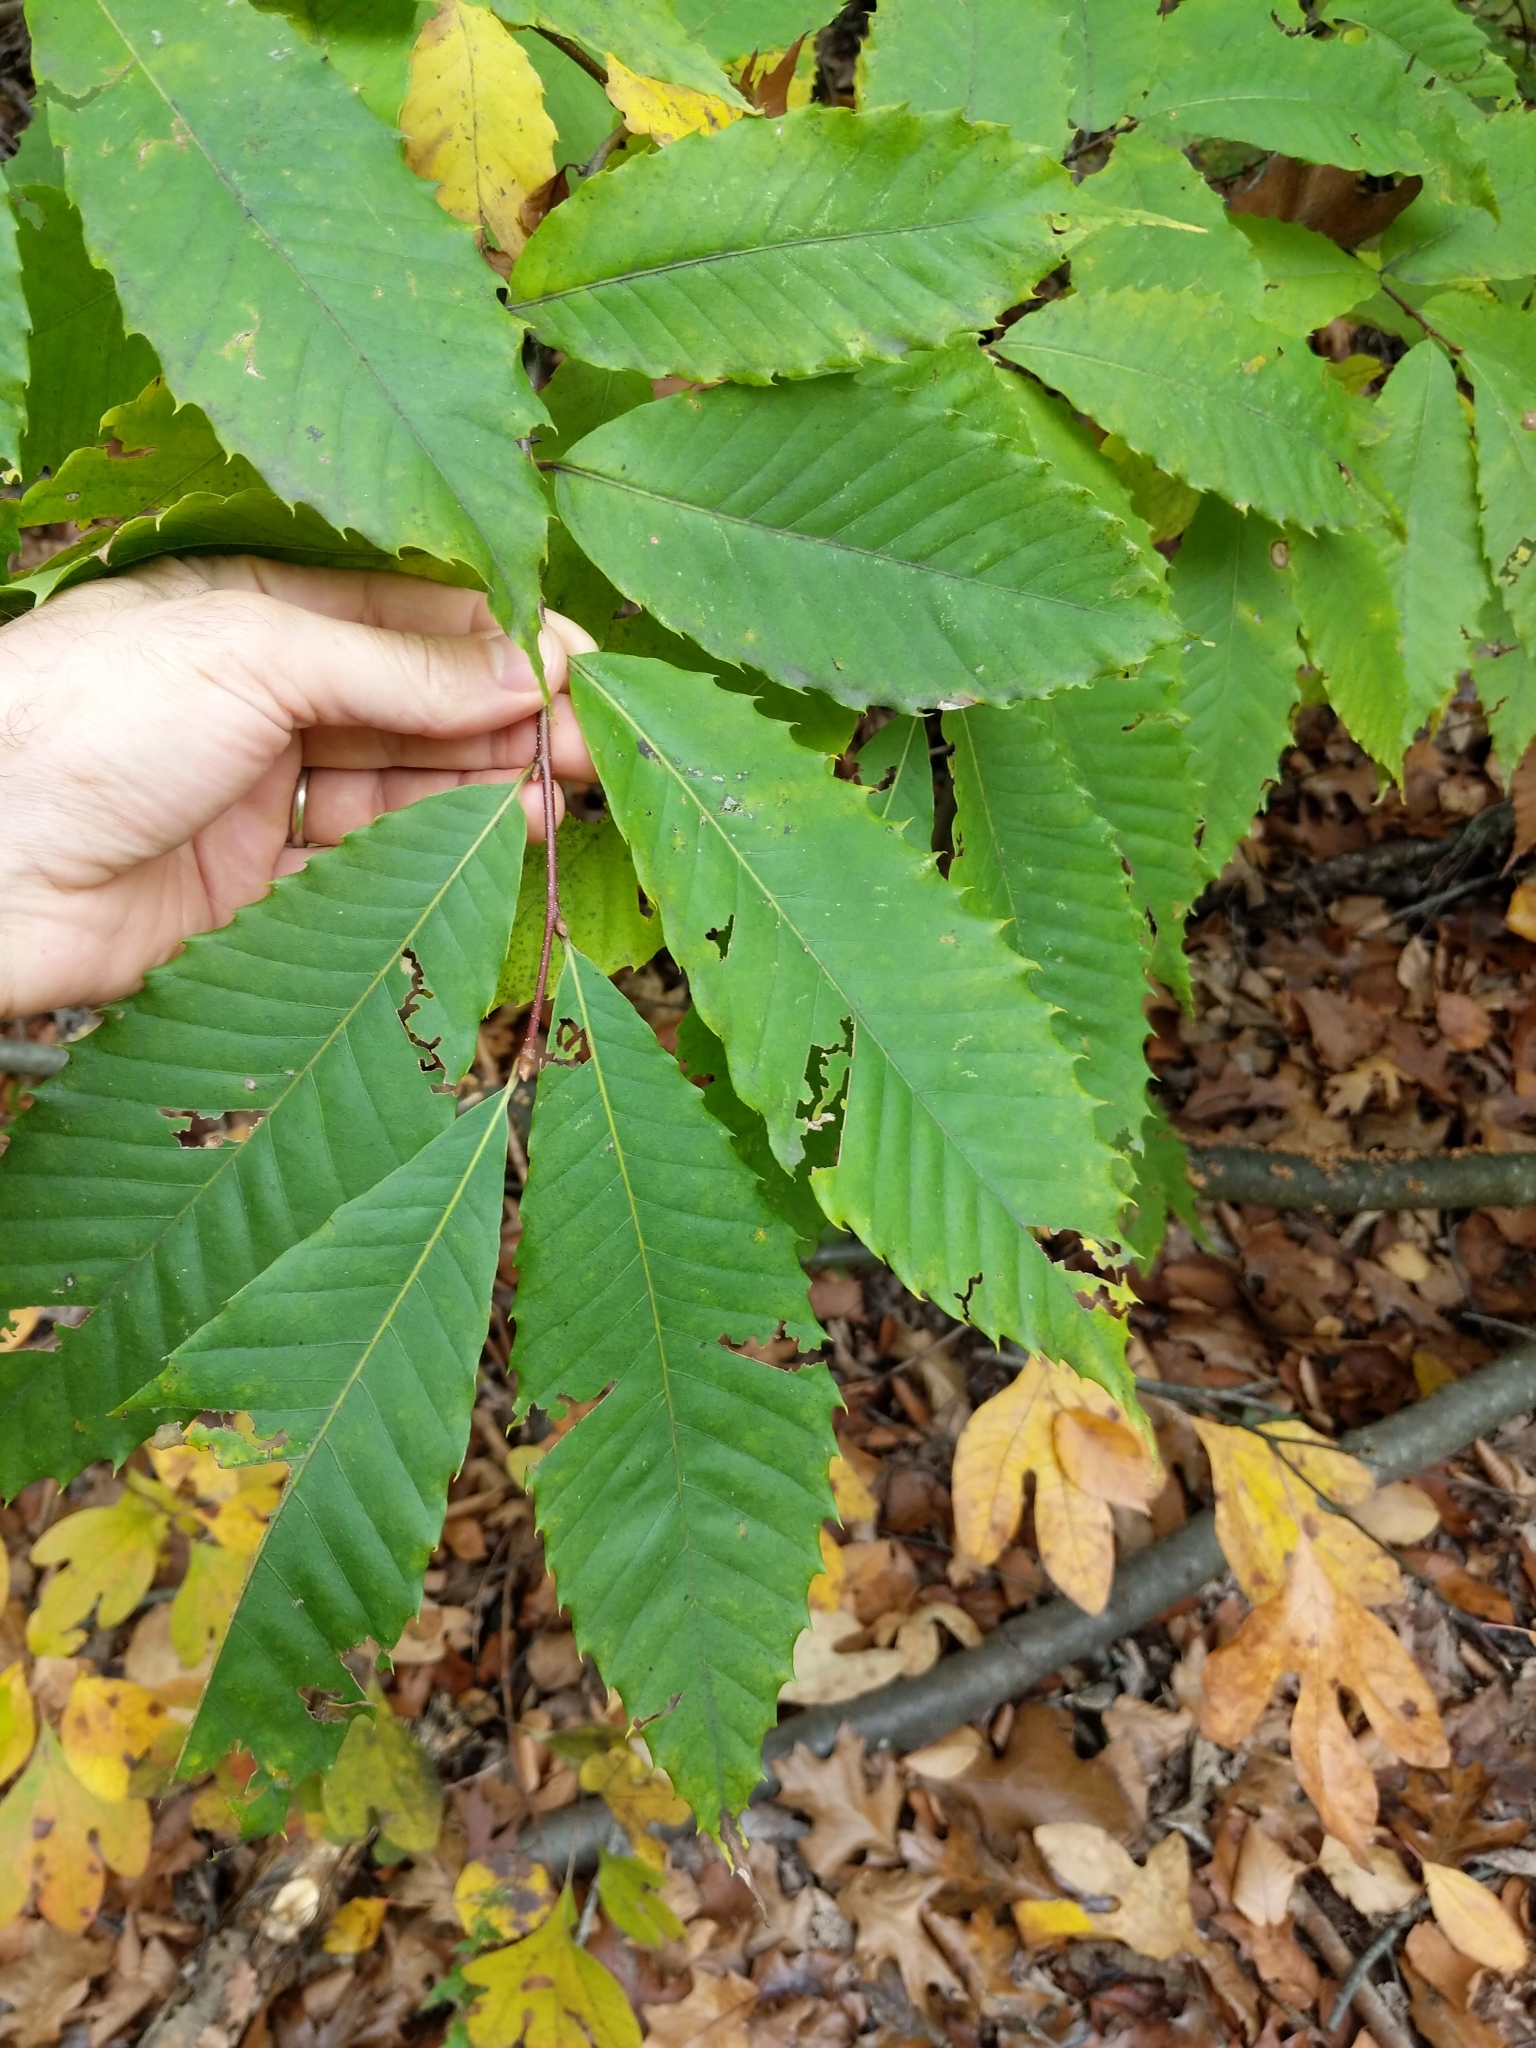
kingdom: Plantae
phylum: Tracheophyta
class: Magnoliopsida
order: Fagales
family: Fagaceae
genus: Castanea
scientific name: Castanea dentata
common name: American chestnut
